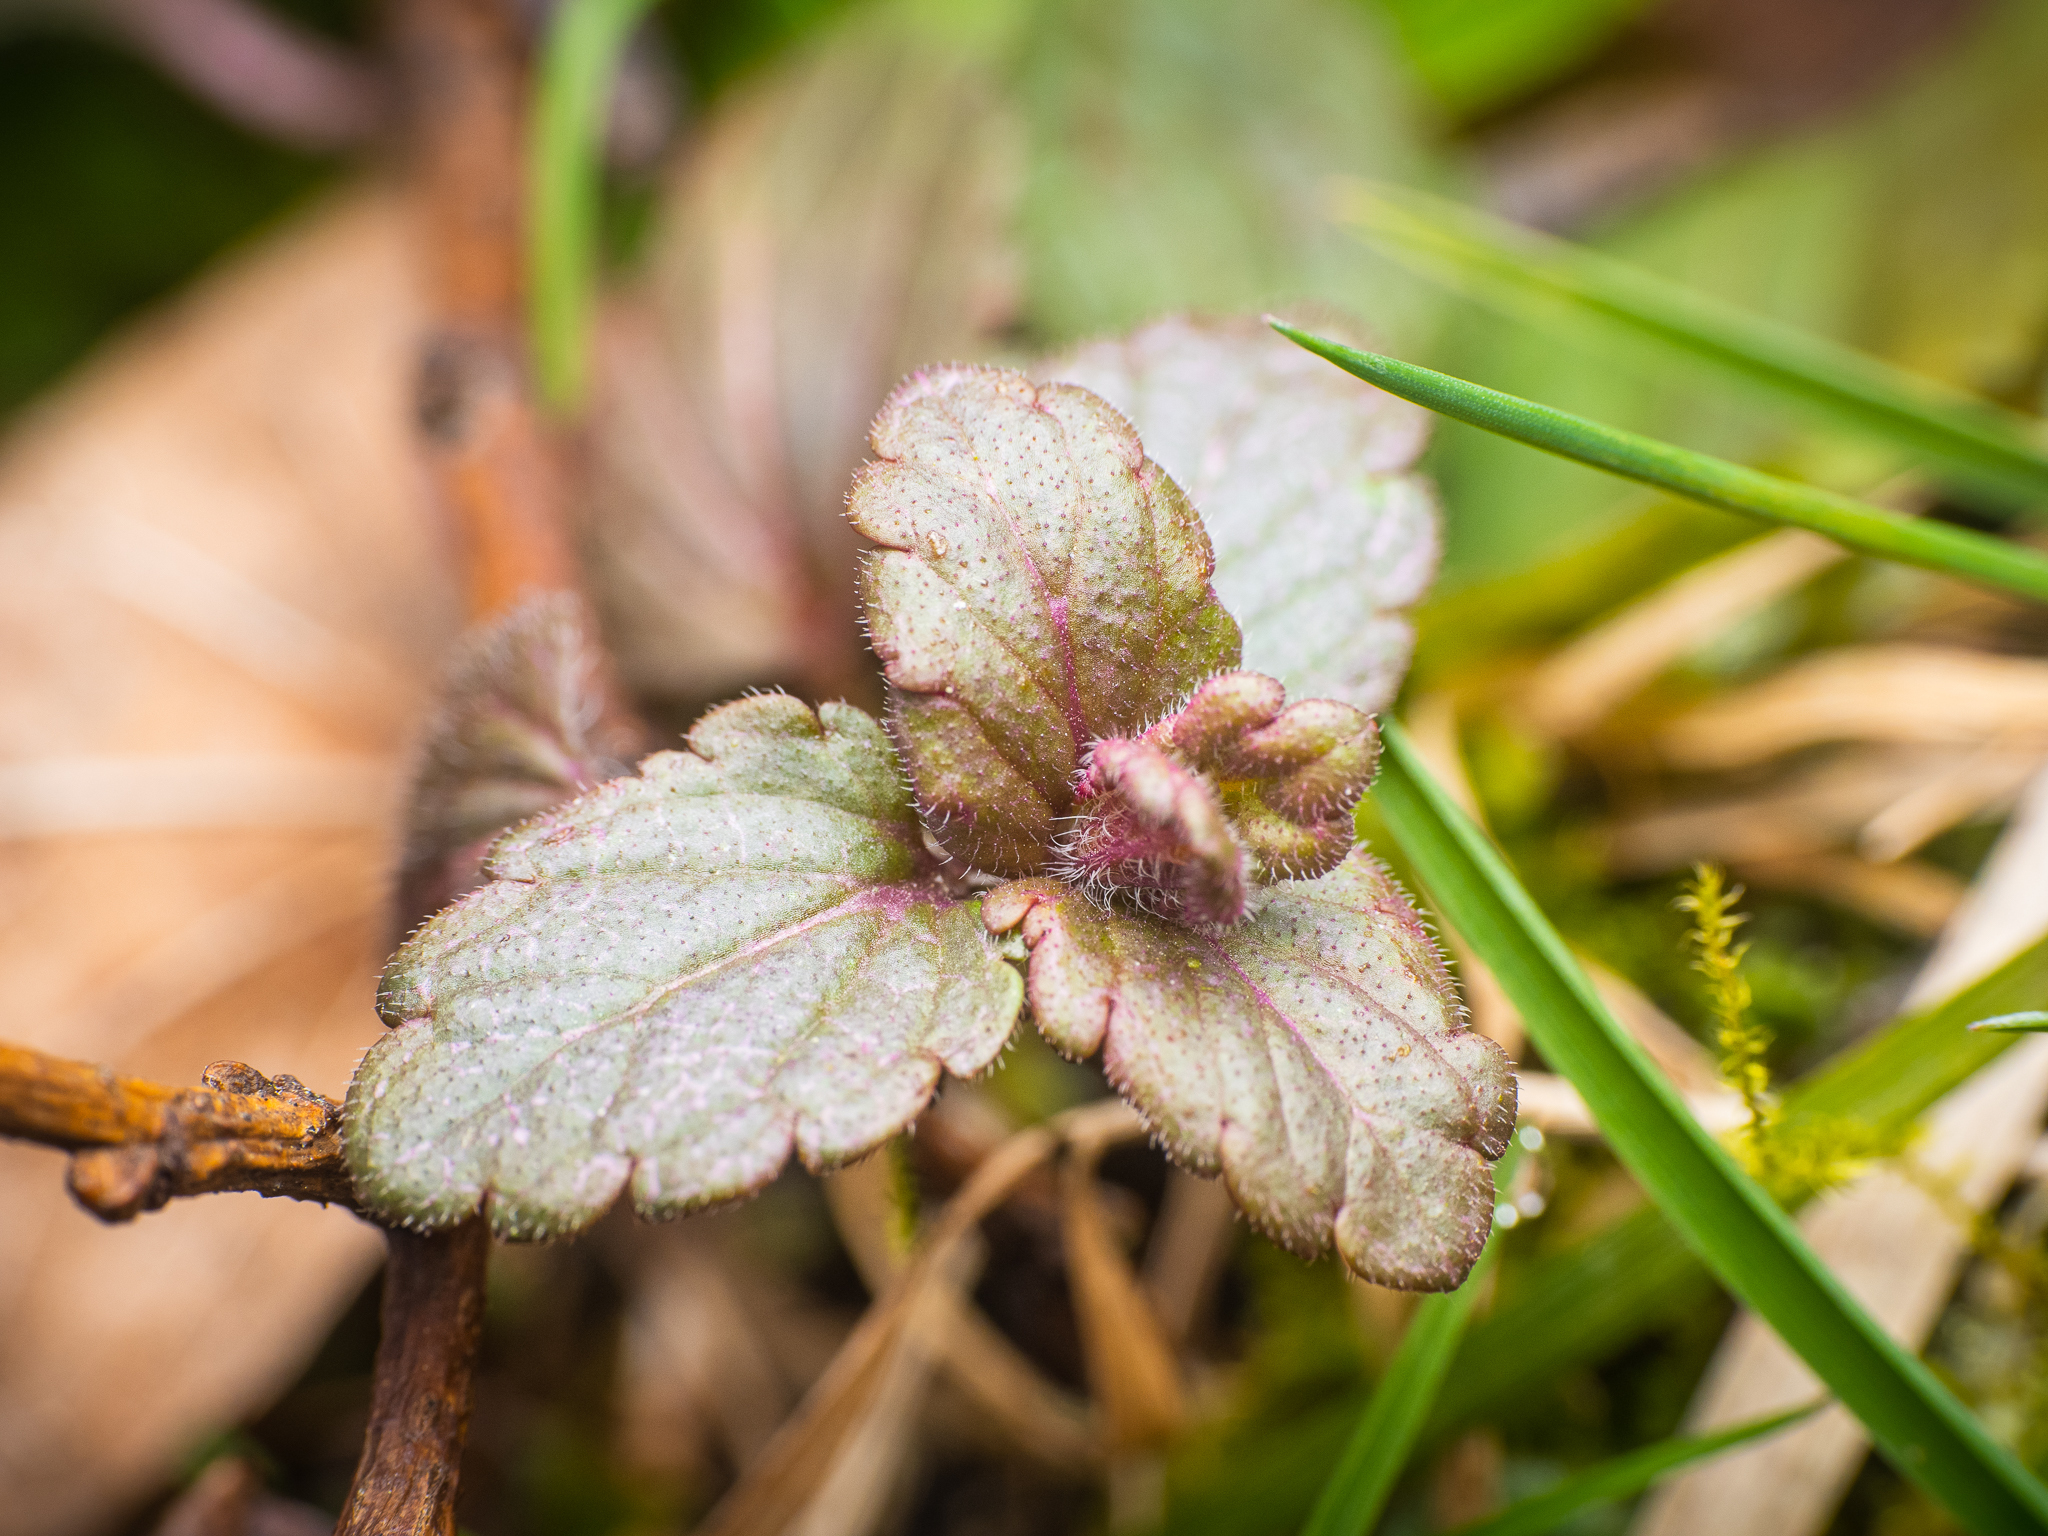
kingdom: Plantae
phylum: Tracheophyta
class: Magnoliopsida
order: Lamiales
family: Plantaginaceae
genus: Veronica
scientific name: Veronica chamaedrys
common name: Germander speedwell
